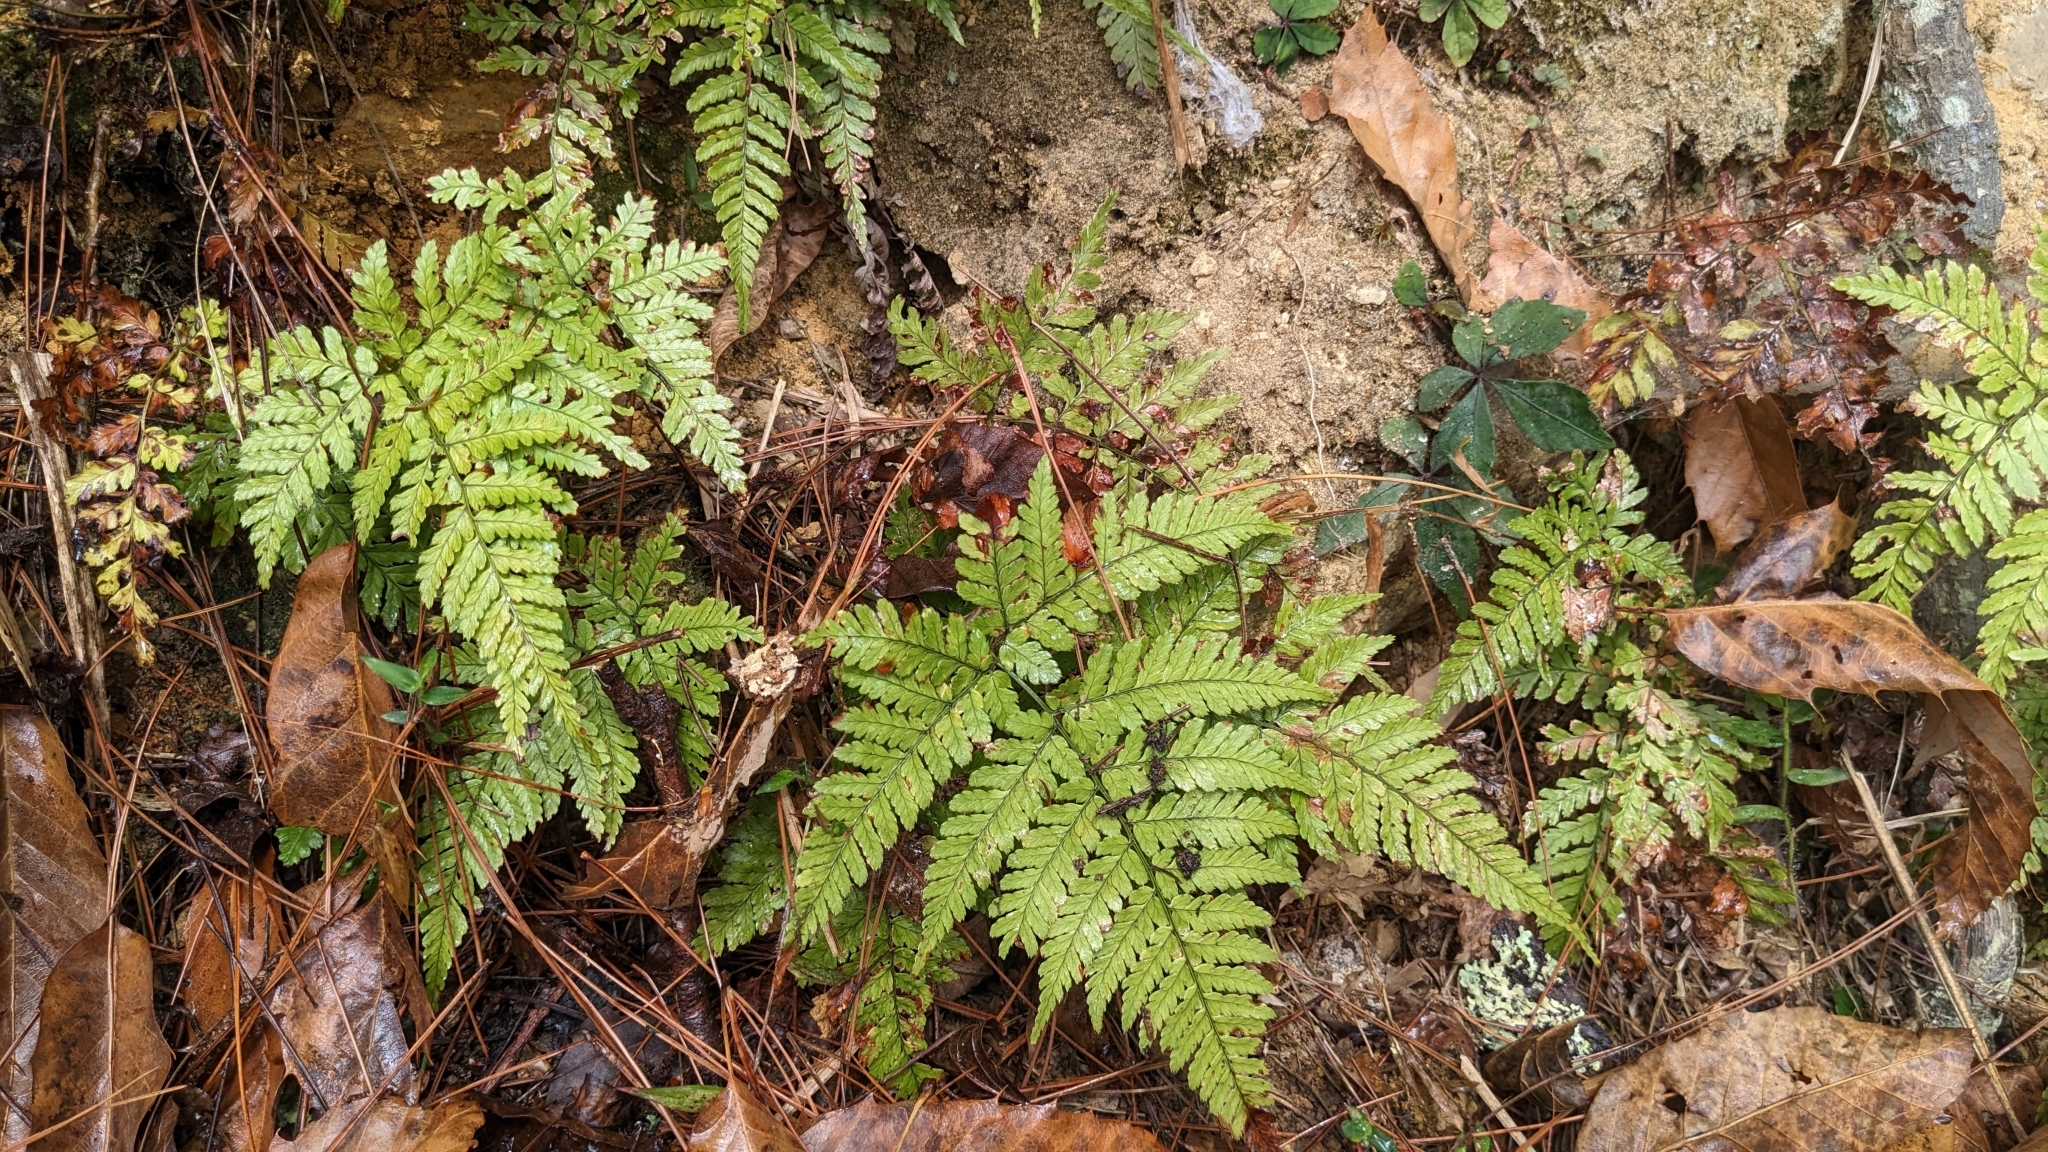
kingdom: Plantae
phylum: Tracheophyta
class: Polypodiopsida
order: Polypodiales
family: Dryopteridaceae
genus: Dryopteris
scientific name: Dryopteris formosana
